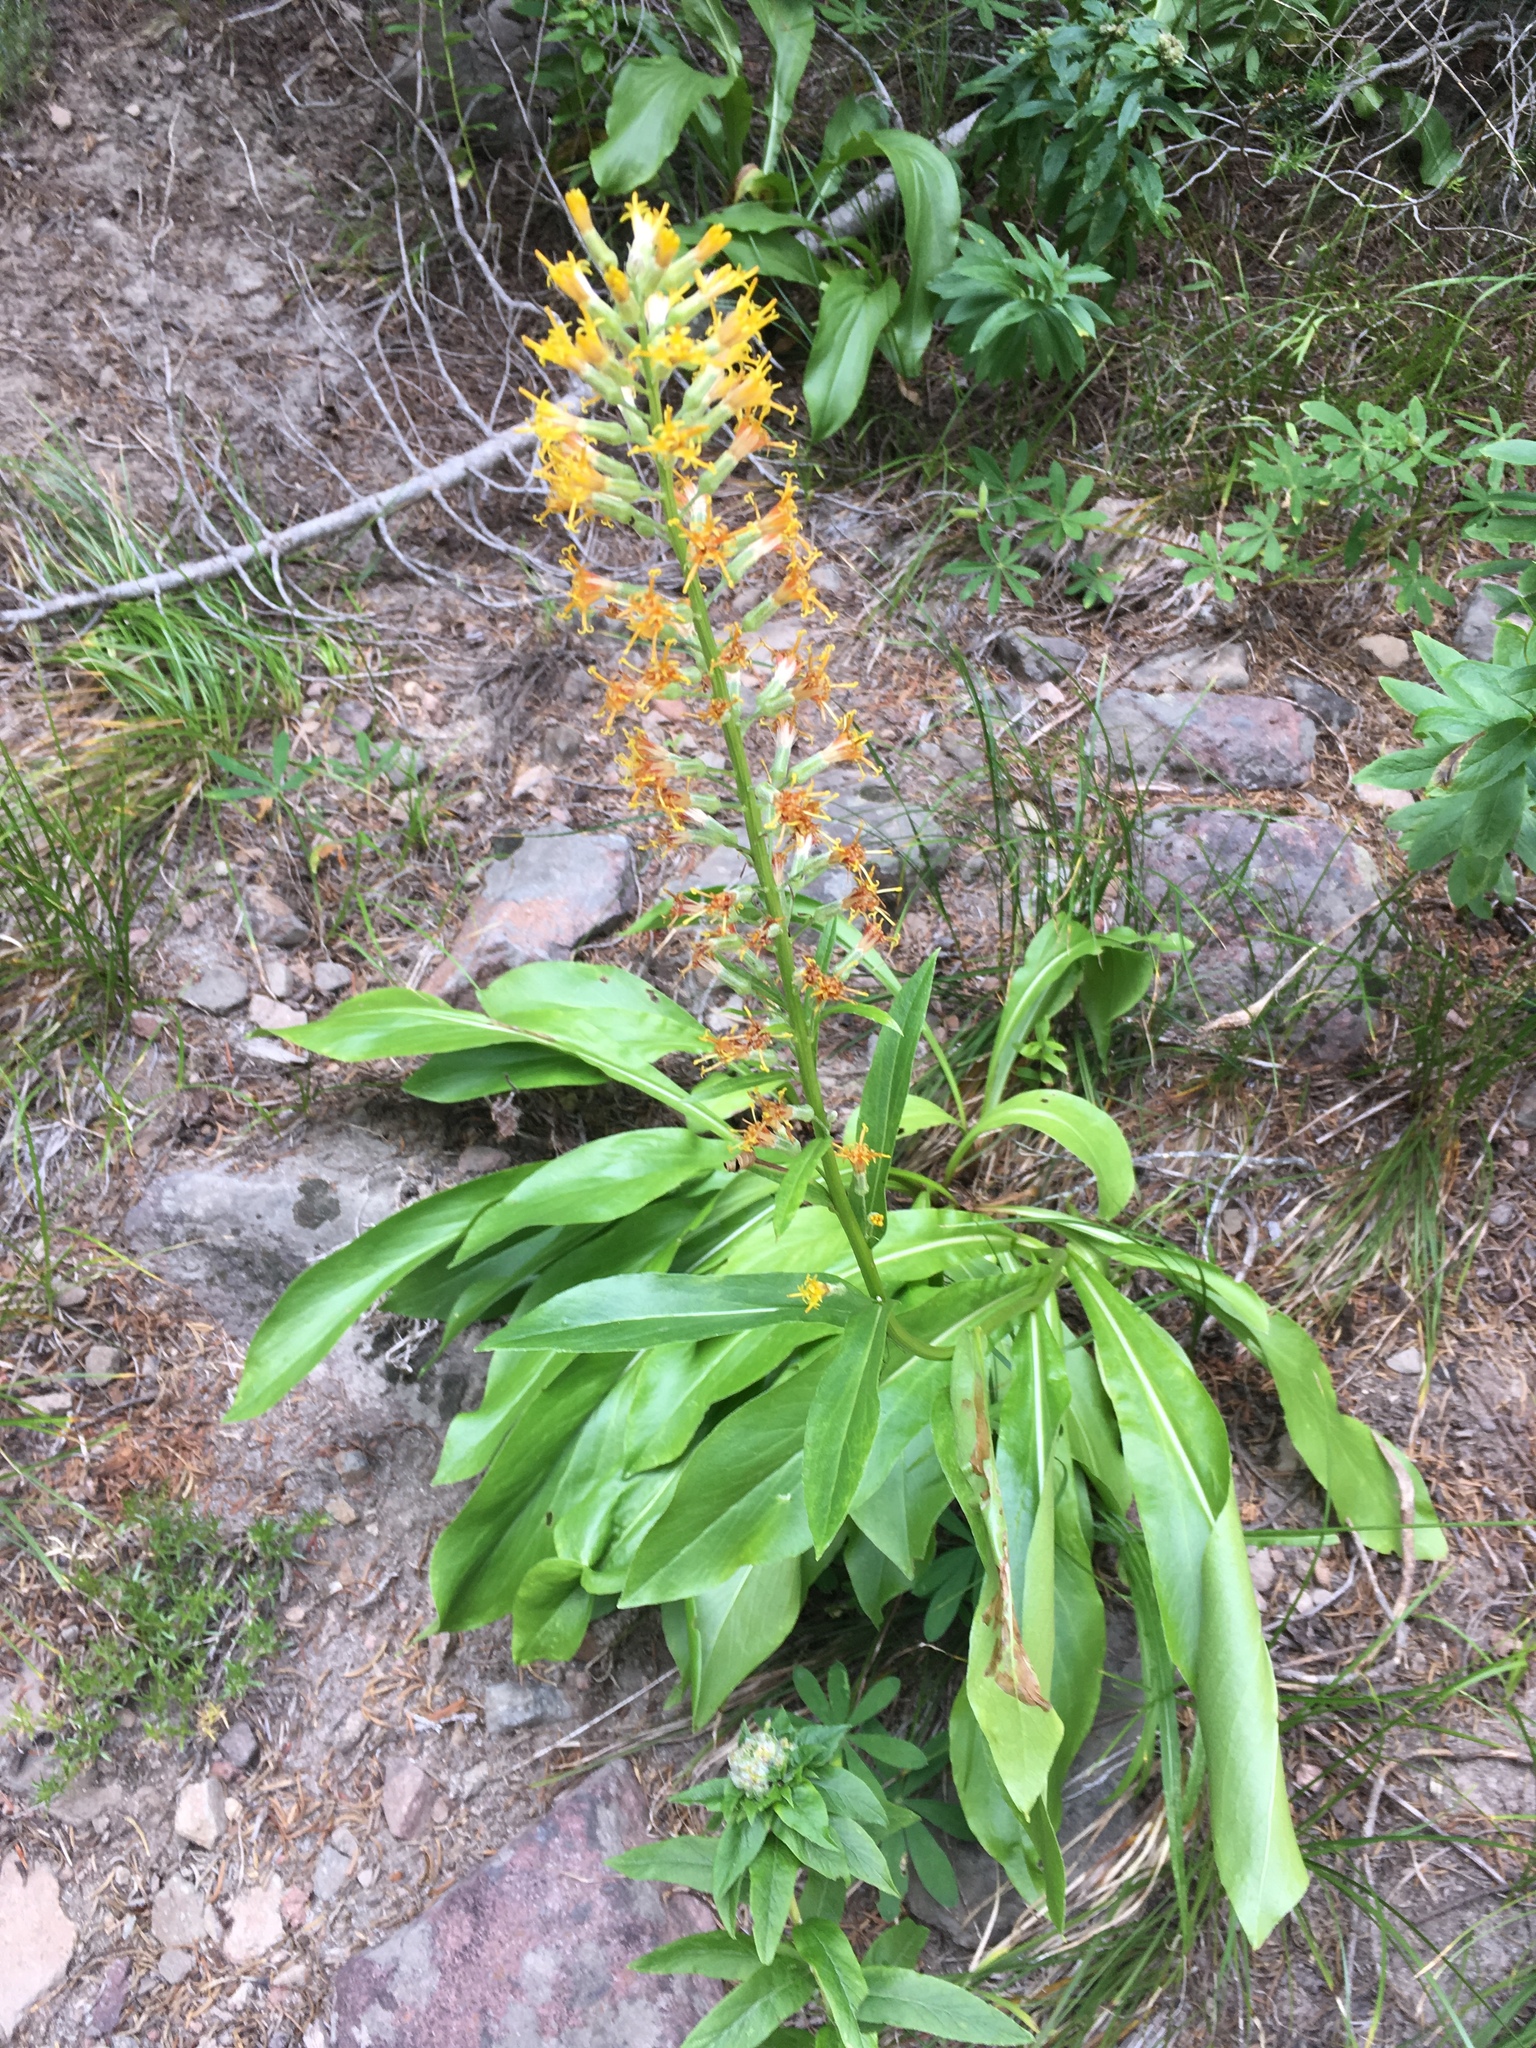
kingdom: Plantae
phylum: Tracheophyta
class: Magnoliopsida
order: Asterales
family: Asteraceae
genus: Rainiera
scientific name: Rainiera stricta
